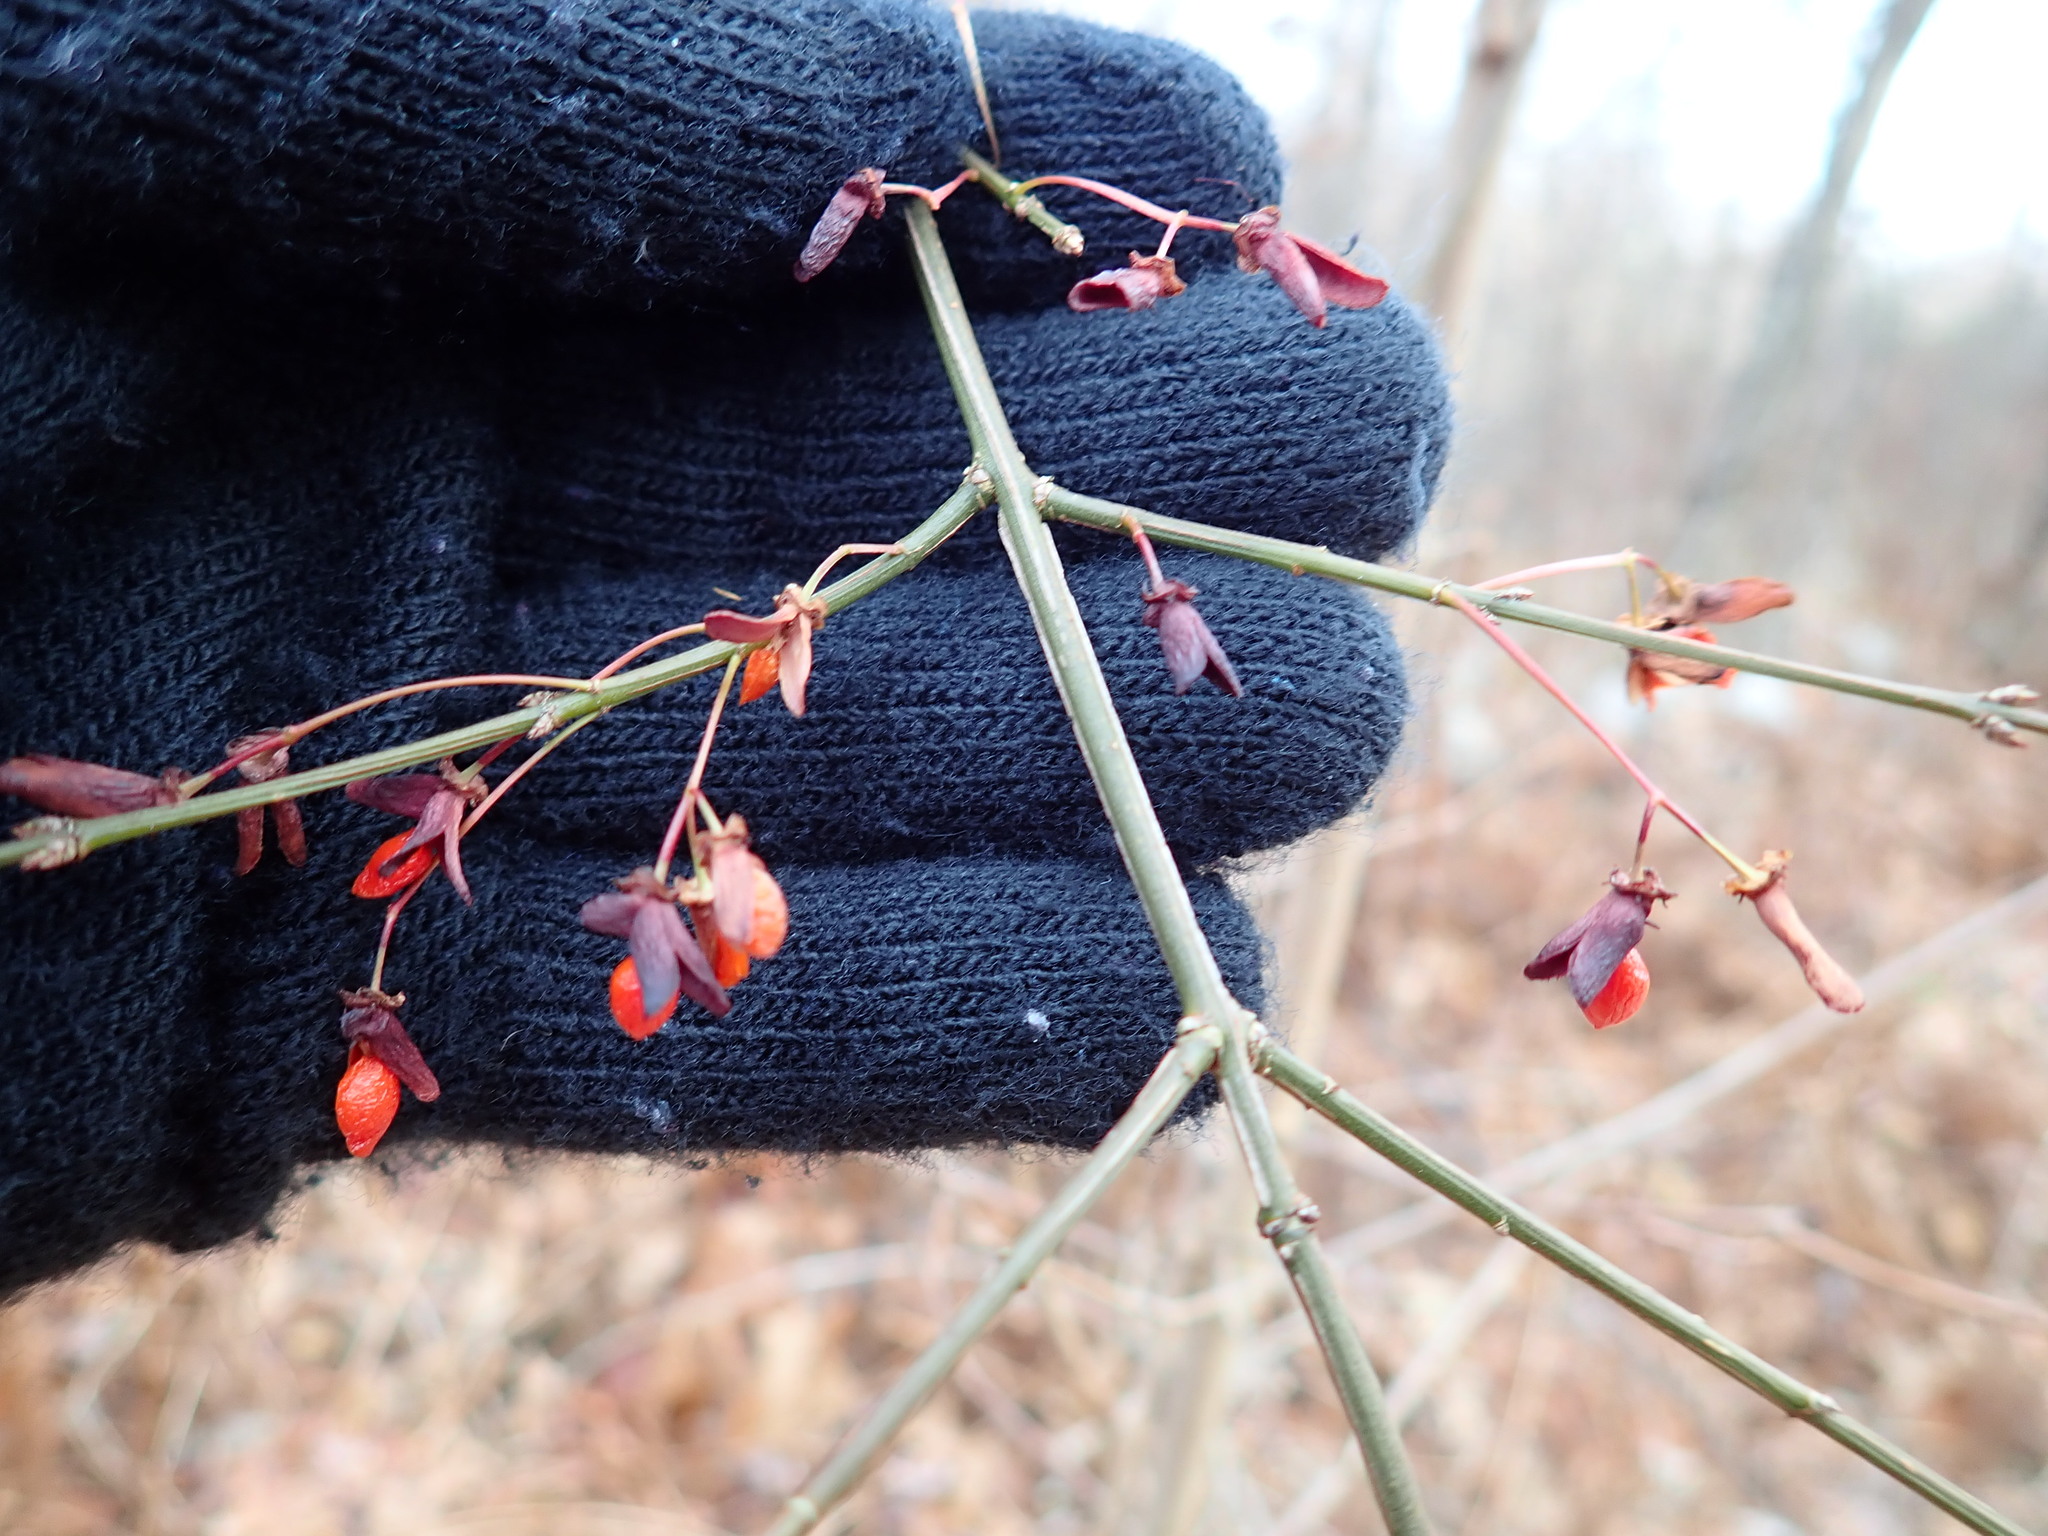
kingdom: Plantae
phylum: Tracheophyta
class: Magnoliopsida
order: Celastrales
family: Celastraceae
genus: Euonymus
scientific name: Euonymus alatus
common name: Winged euonymus
